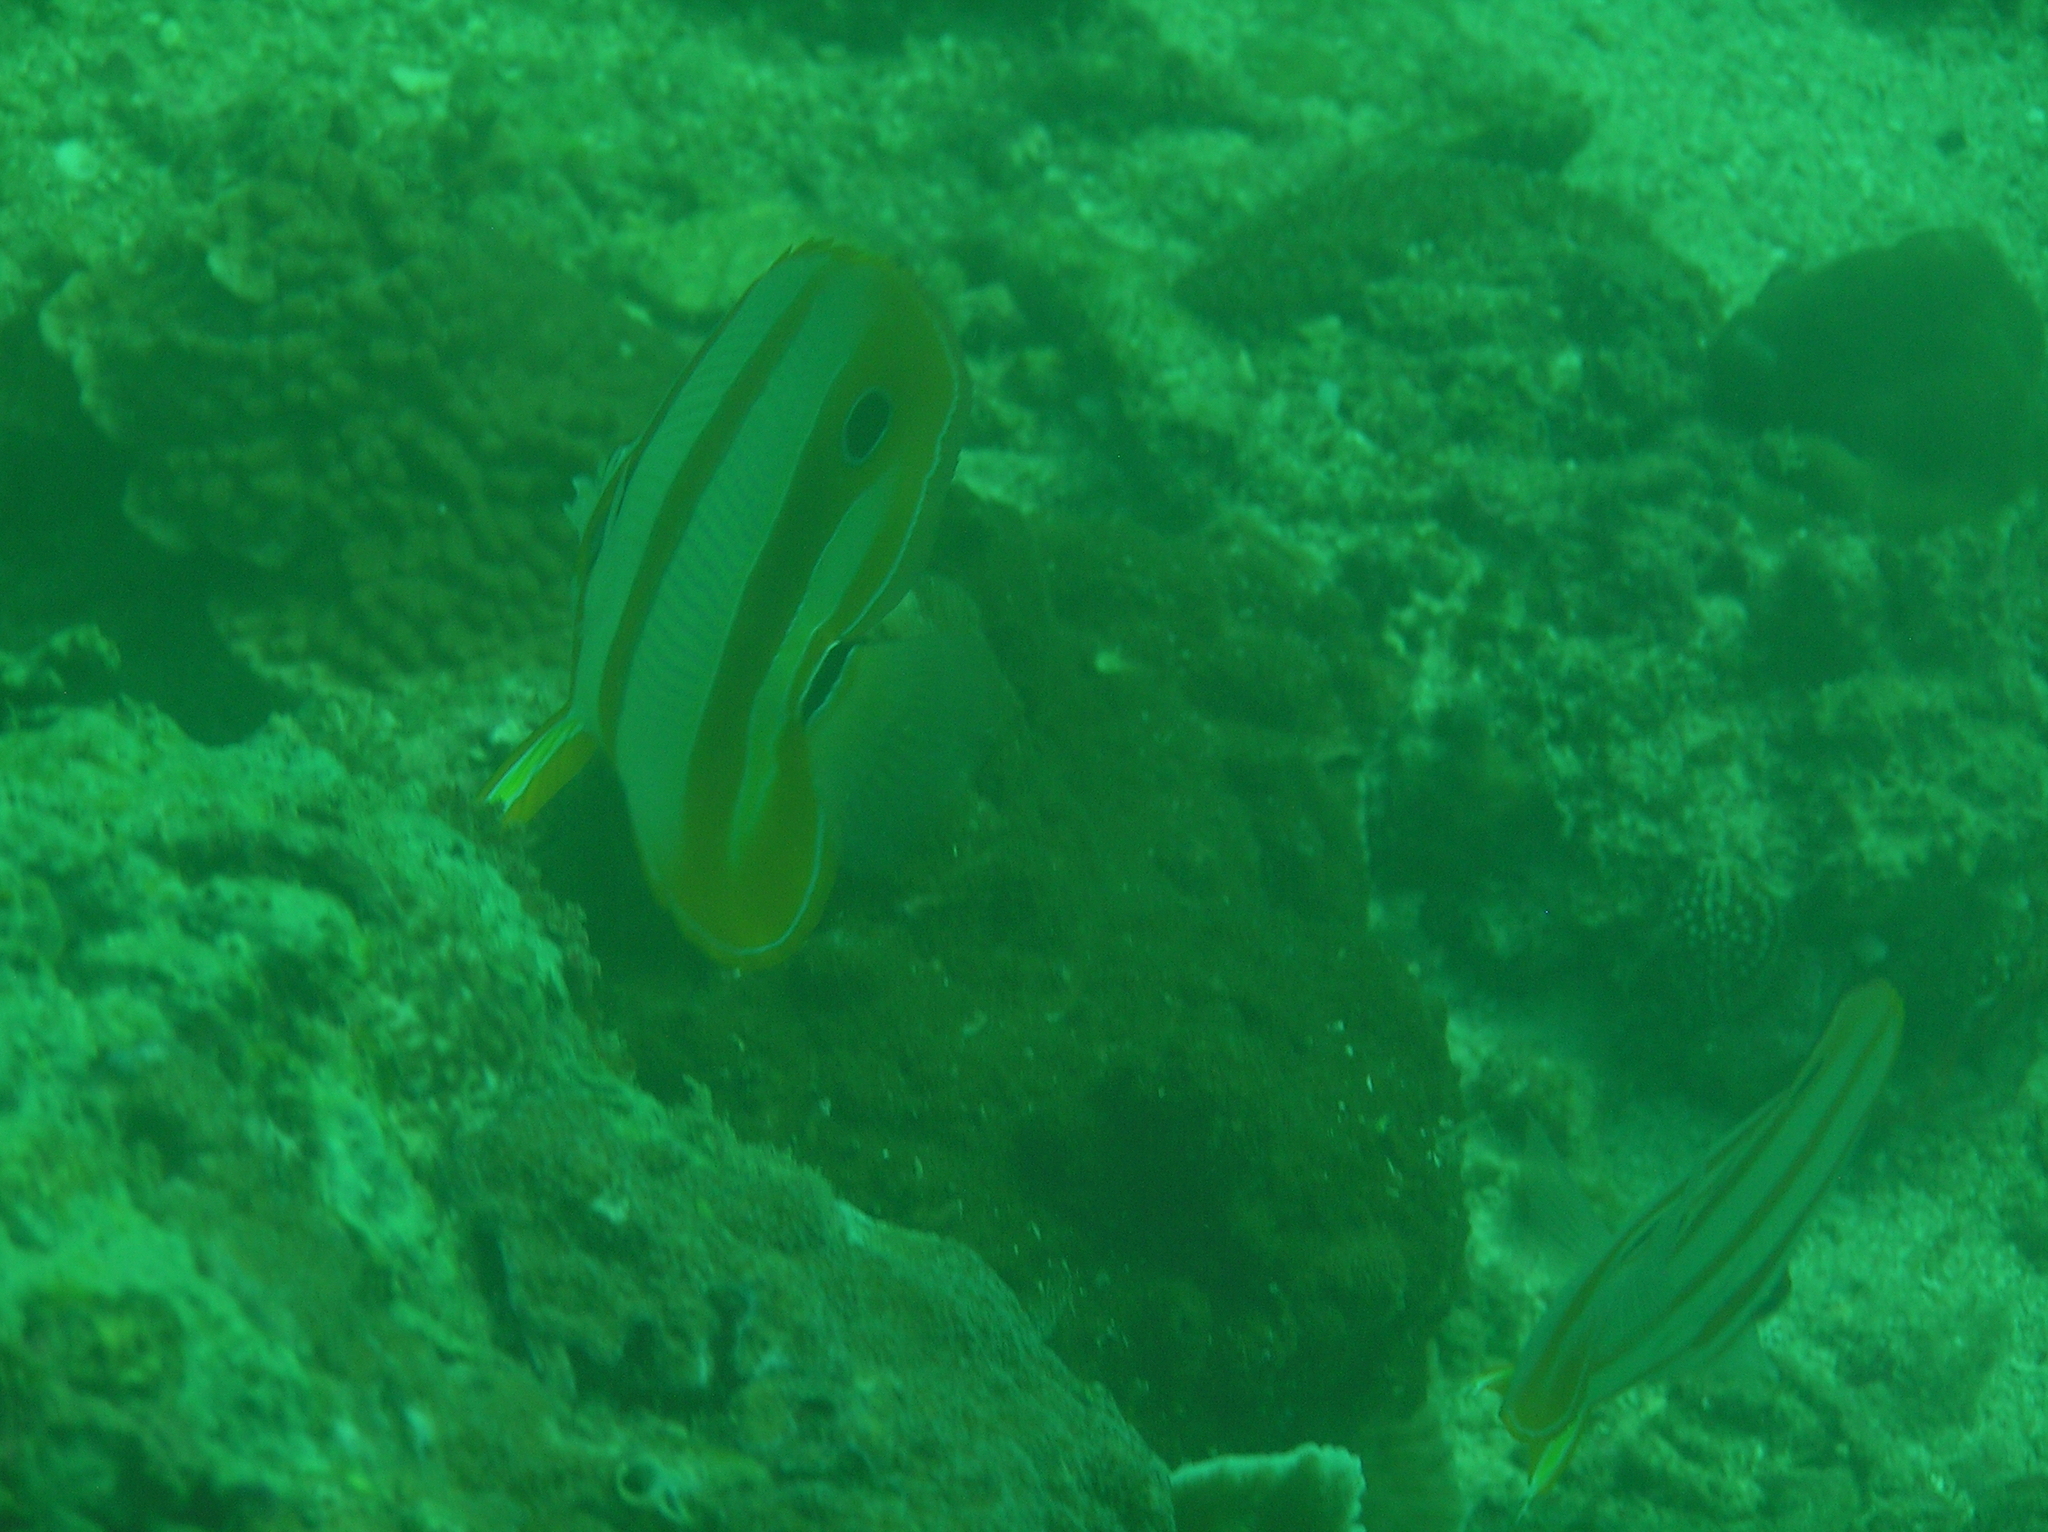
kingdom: Animalia
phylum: Chordata
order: Perciformes
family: Chaetodontidae
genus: Chelmon
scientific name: Chelmon rostratus
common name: Beaked butterflyfish
